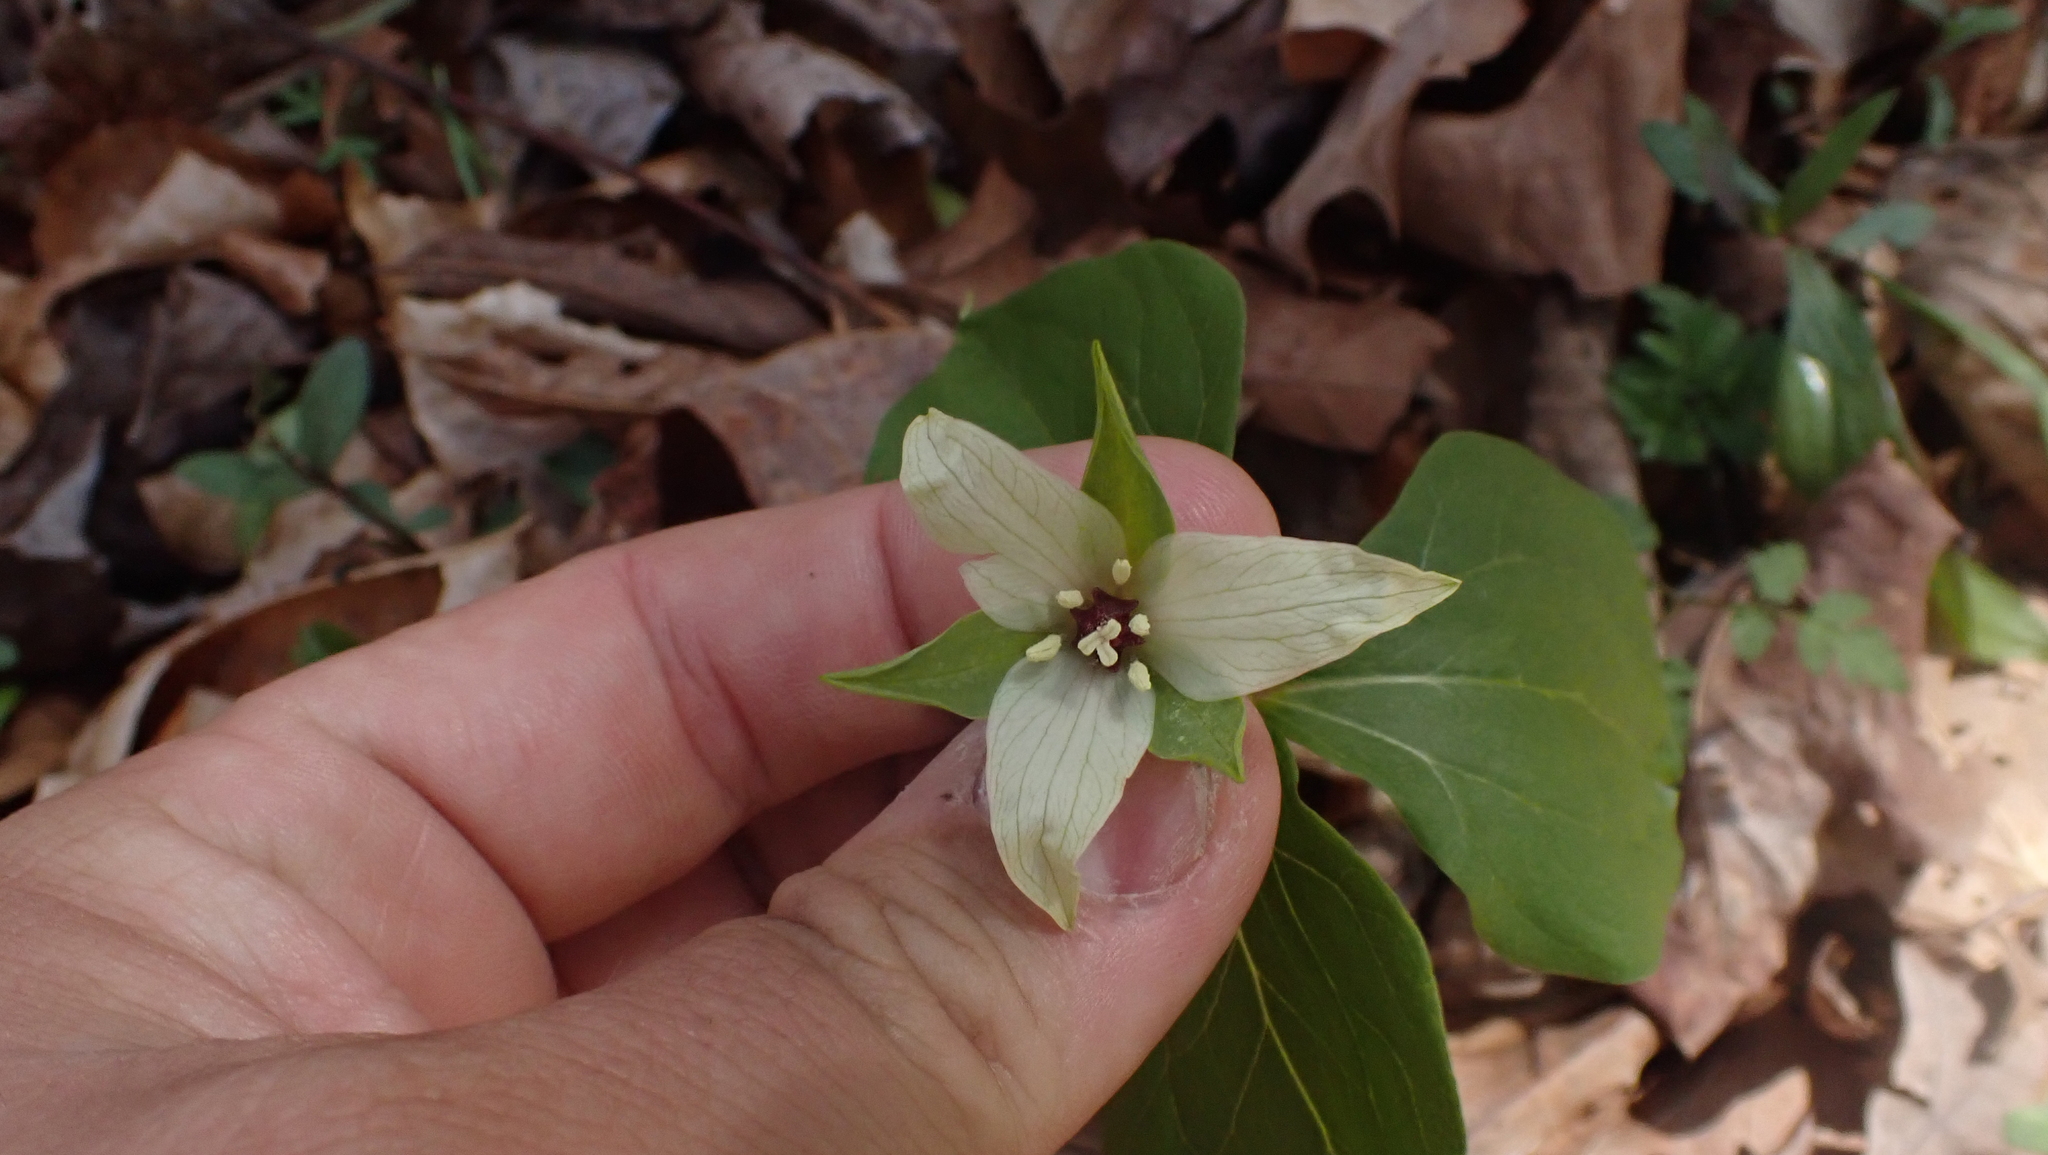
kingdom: Plantae
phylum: Tracheophyta
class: Liliopsida
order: Liliales
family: Melanthiaceae
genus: Trillium
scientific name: Trillium erectum
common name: Purple trillium
